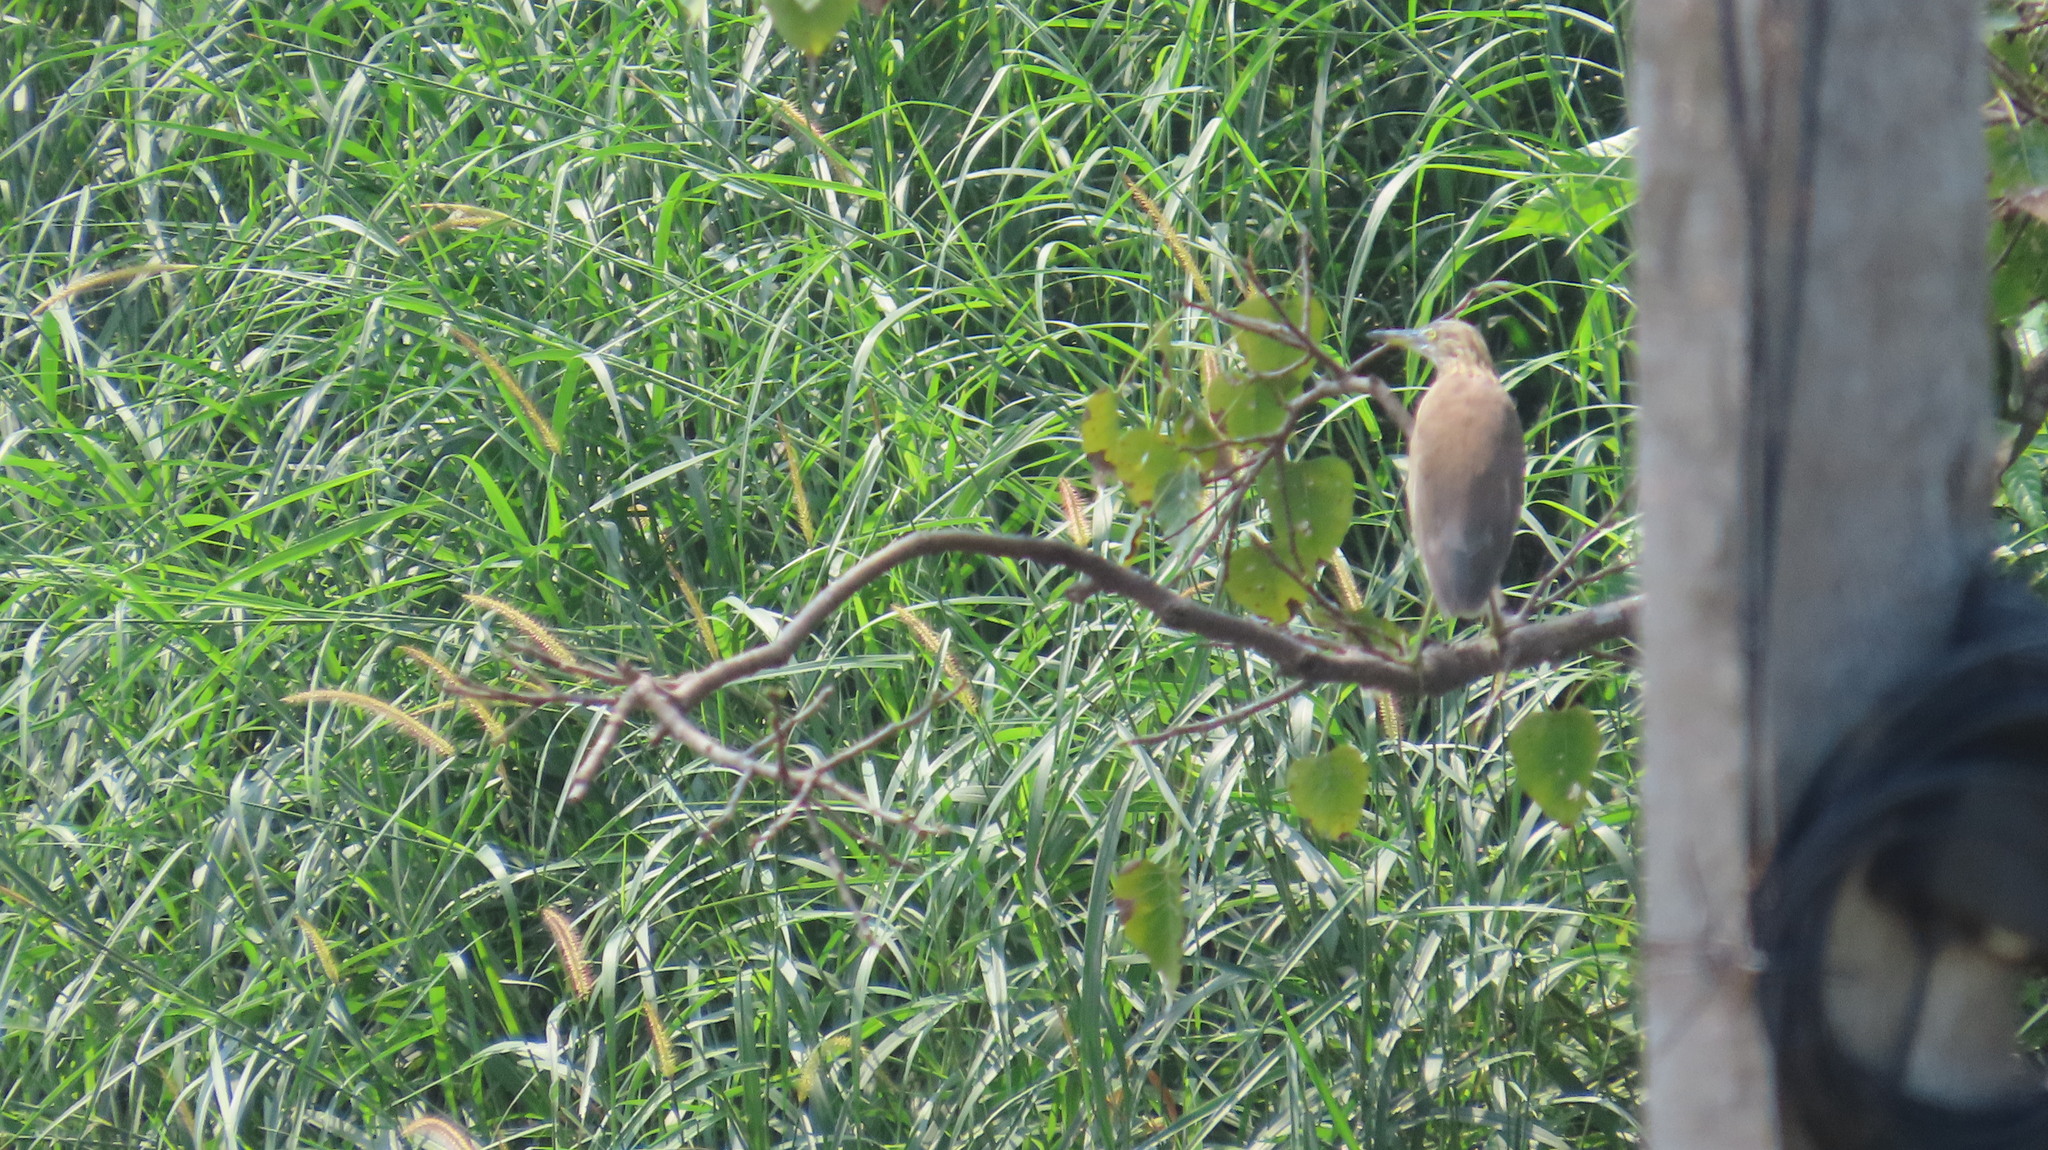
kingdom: Animalia
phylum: Chordata
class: Aves
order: Pelecaniformes
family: Ardeidae
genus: Ardeola
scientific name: Ardeola grayii
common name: Indian pond heron
